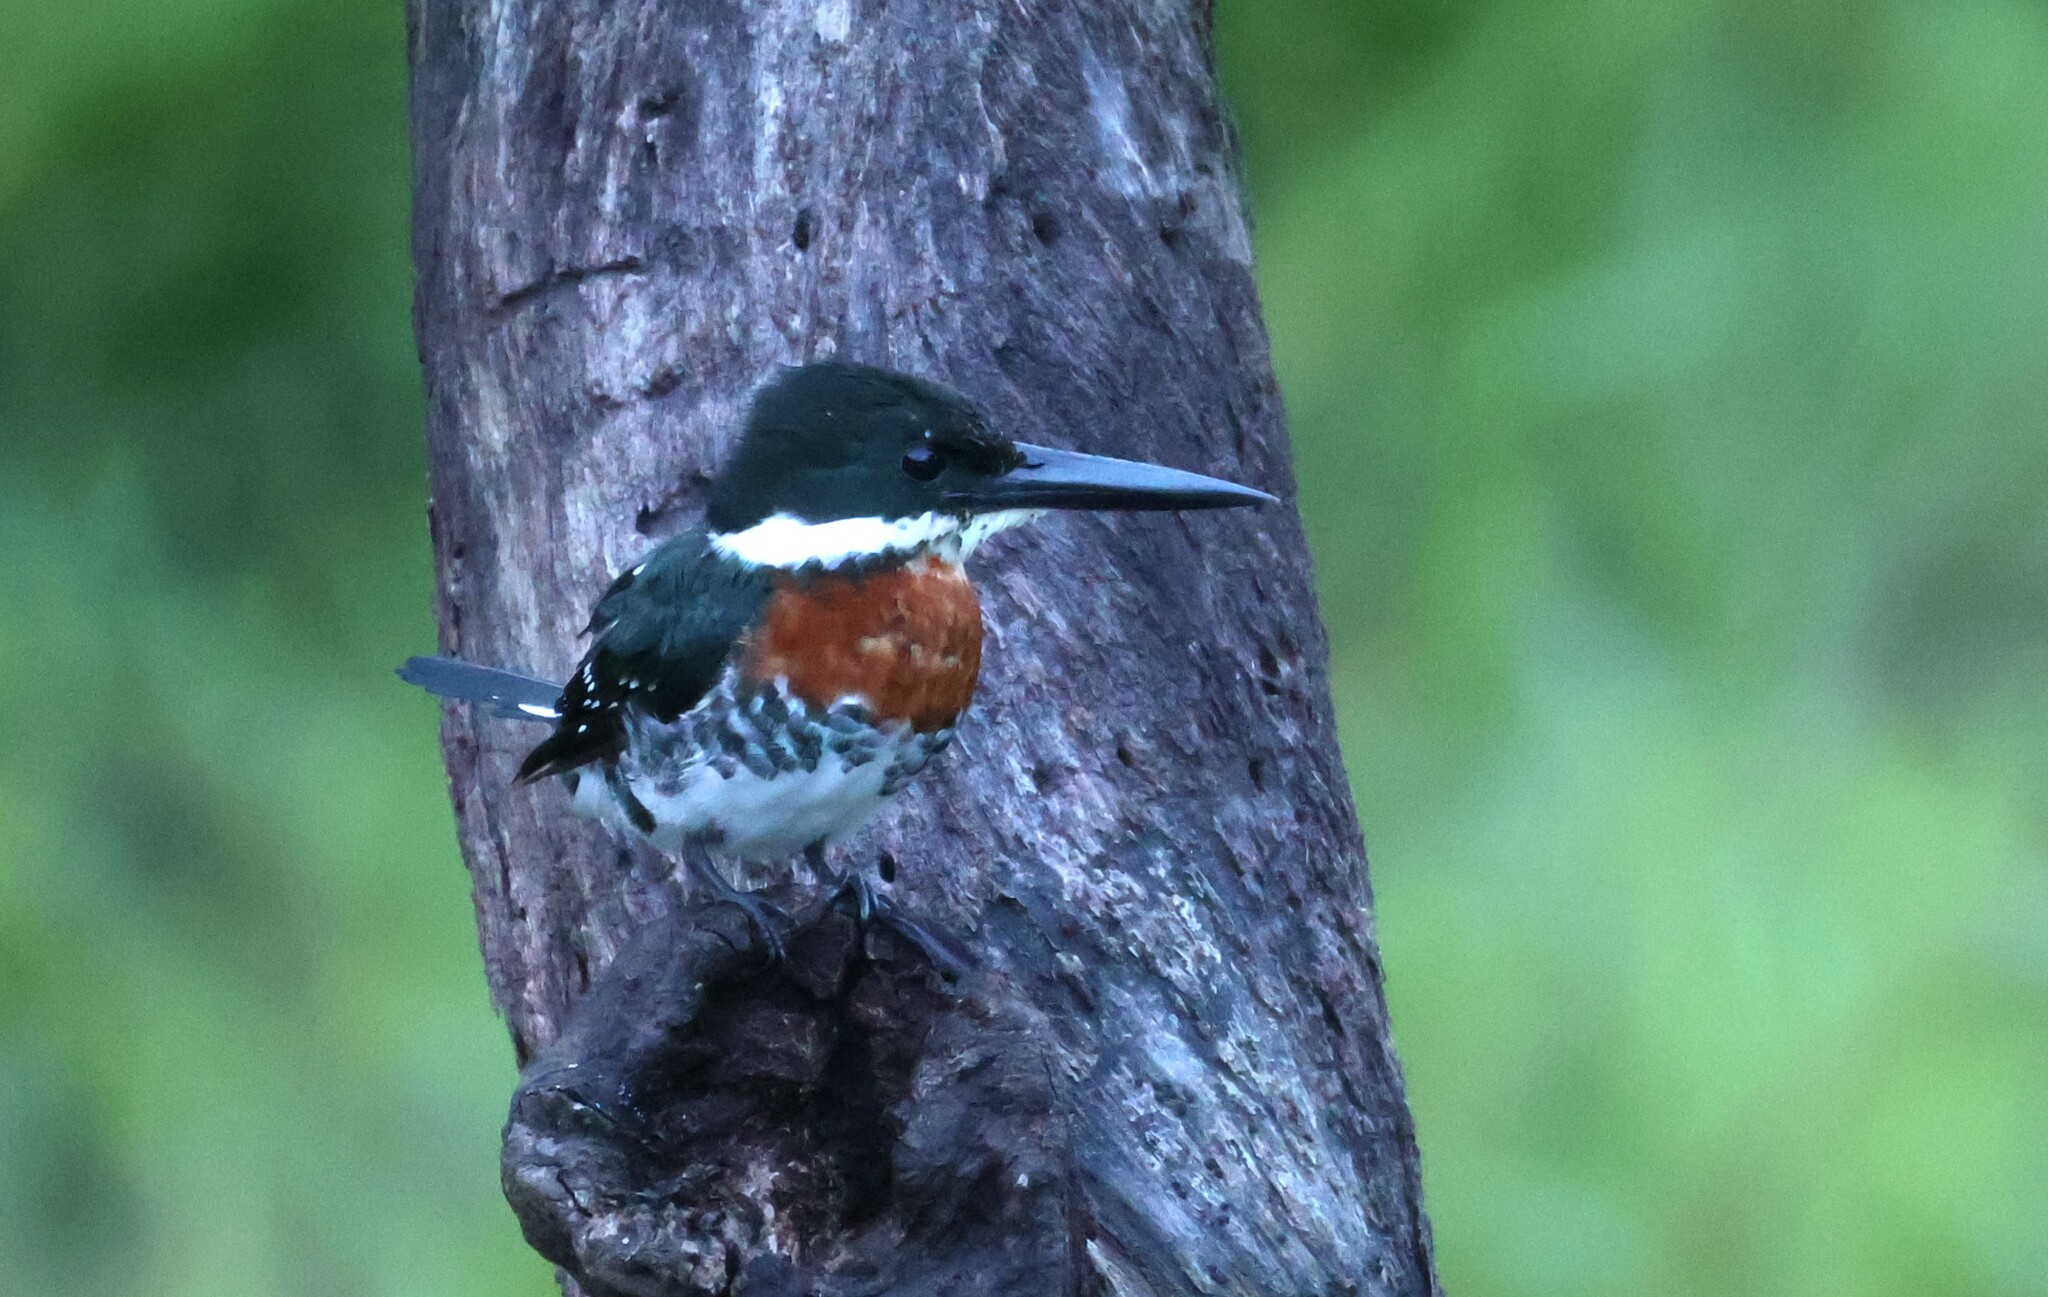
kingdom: Animalia
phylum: Chordata
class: Aves
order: Coraciiformes
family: Alcedinidae
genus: Chloroceryle
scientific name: Chloroceryle americana
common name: Green kingfisher
